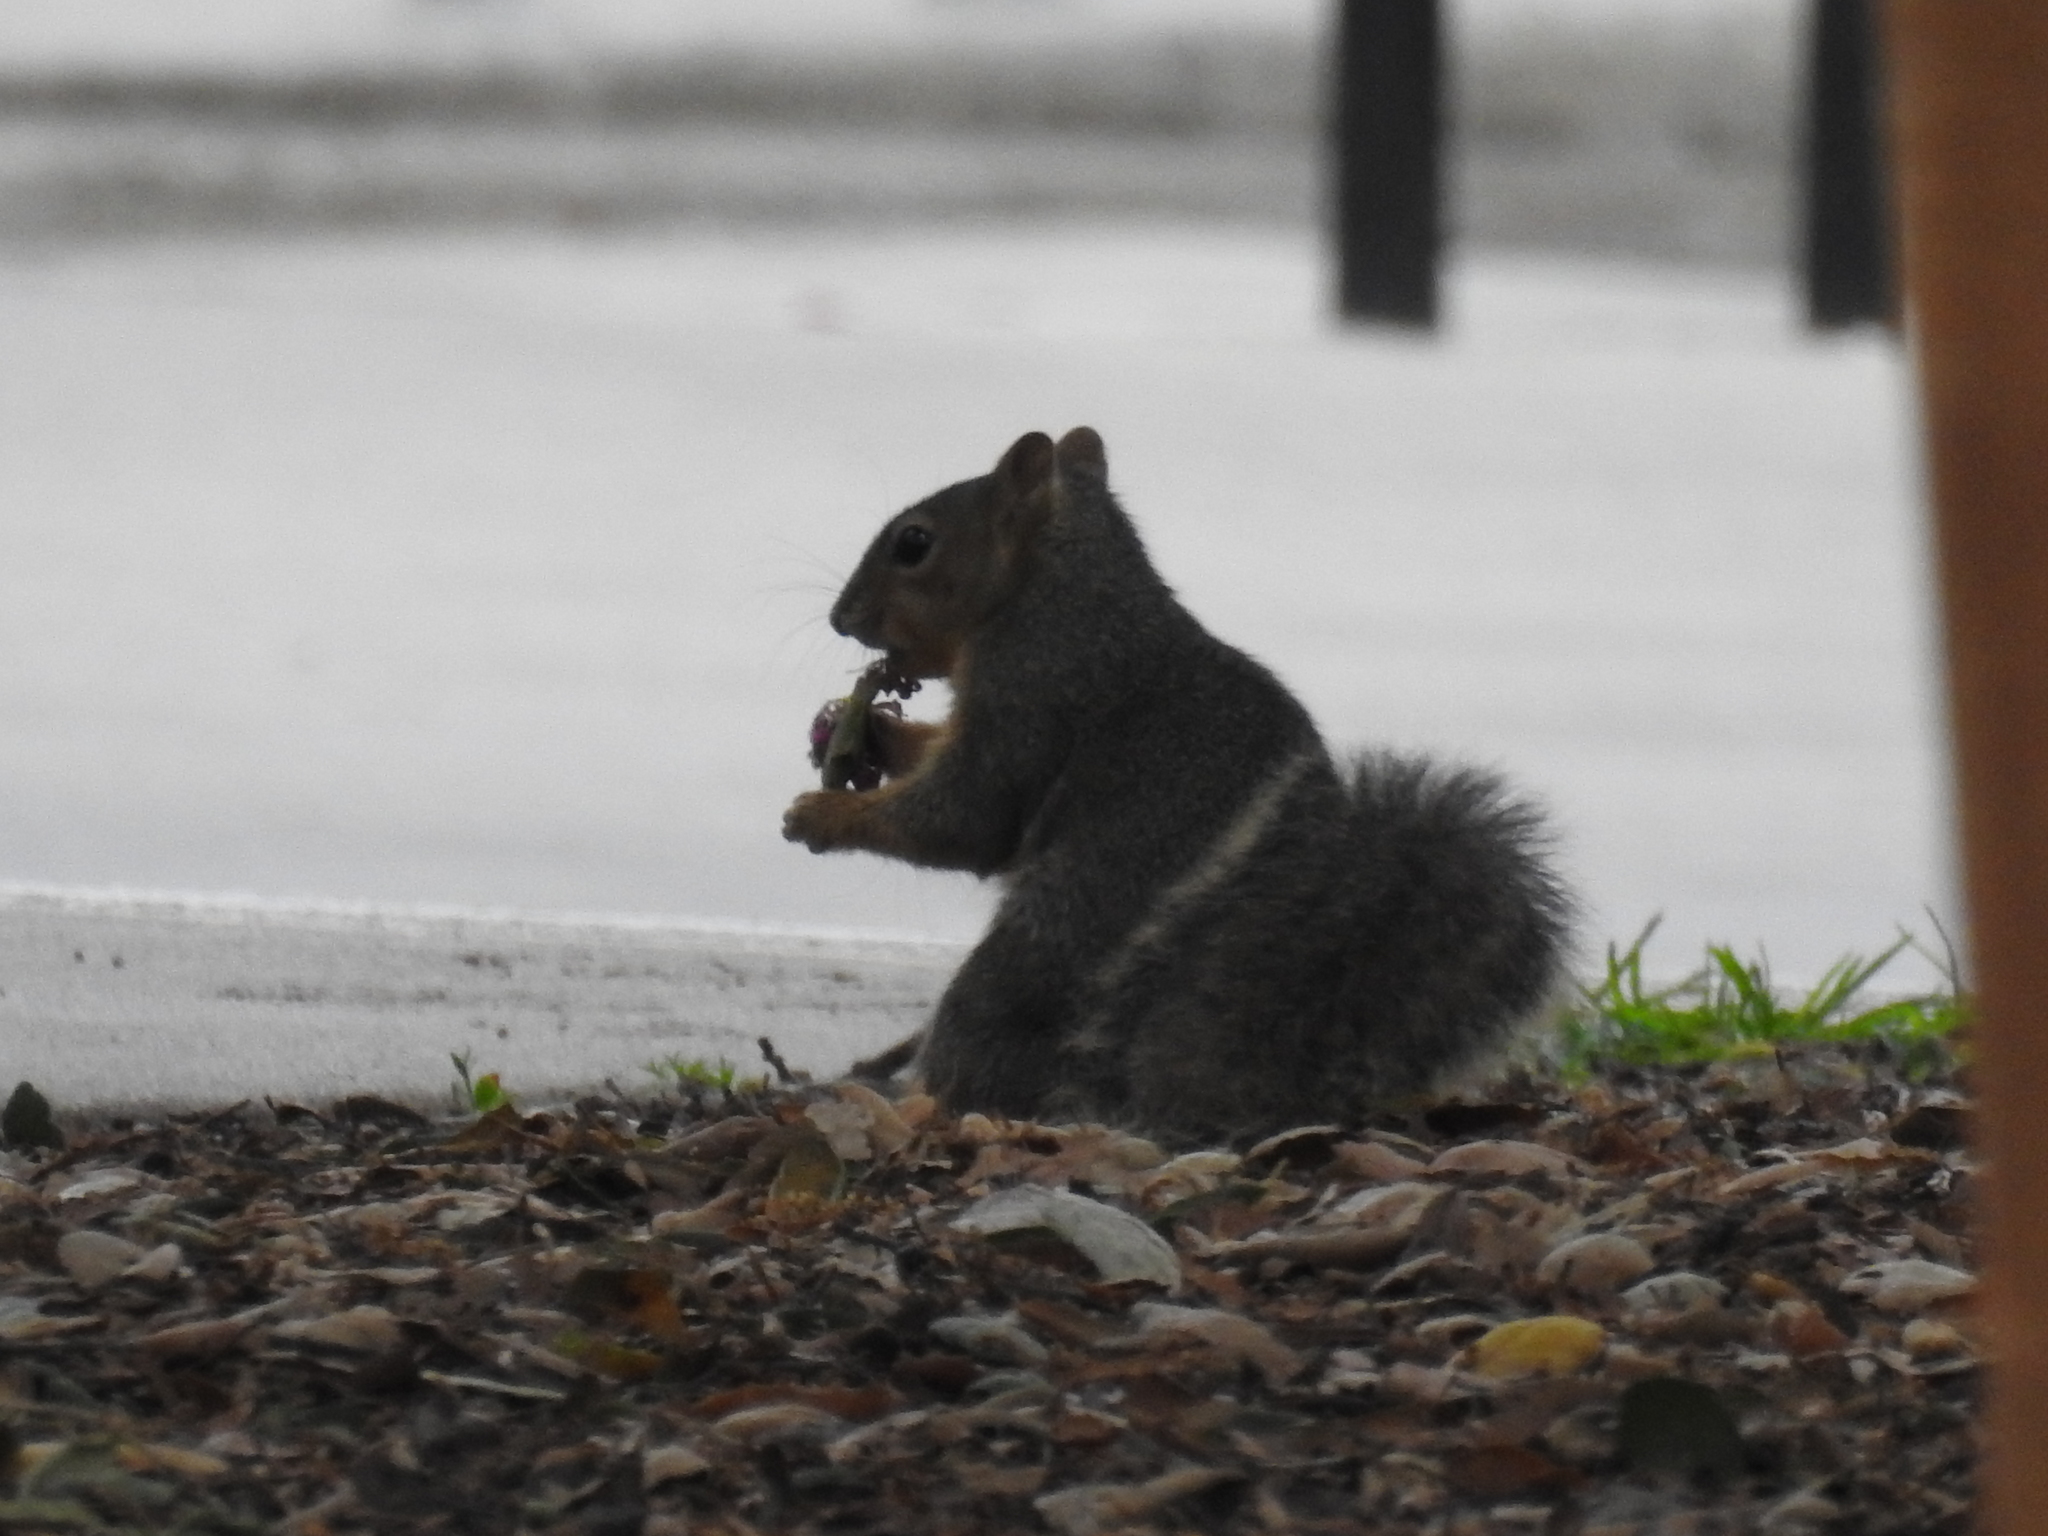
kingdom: Animalia
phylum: Chordata
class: Mammalia
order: Rodentia
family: Sciuridae
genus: Sciurus
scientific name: Sciurus niger
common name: Fox squirrel
